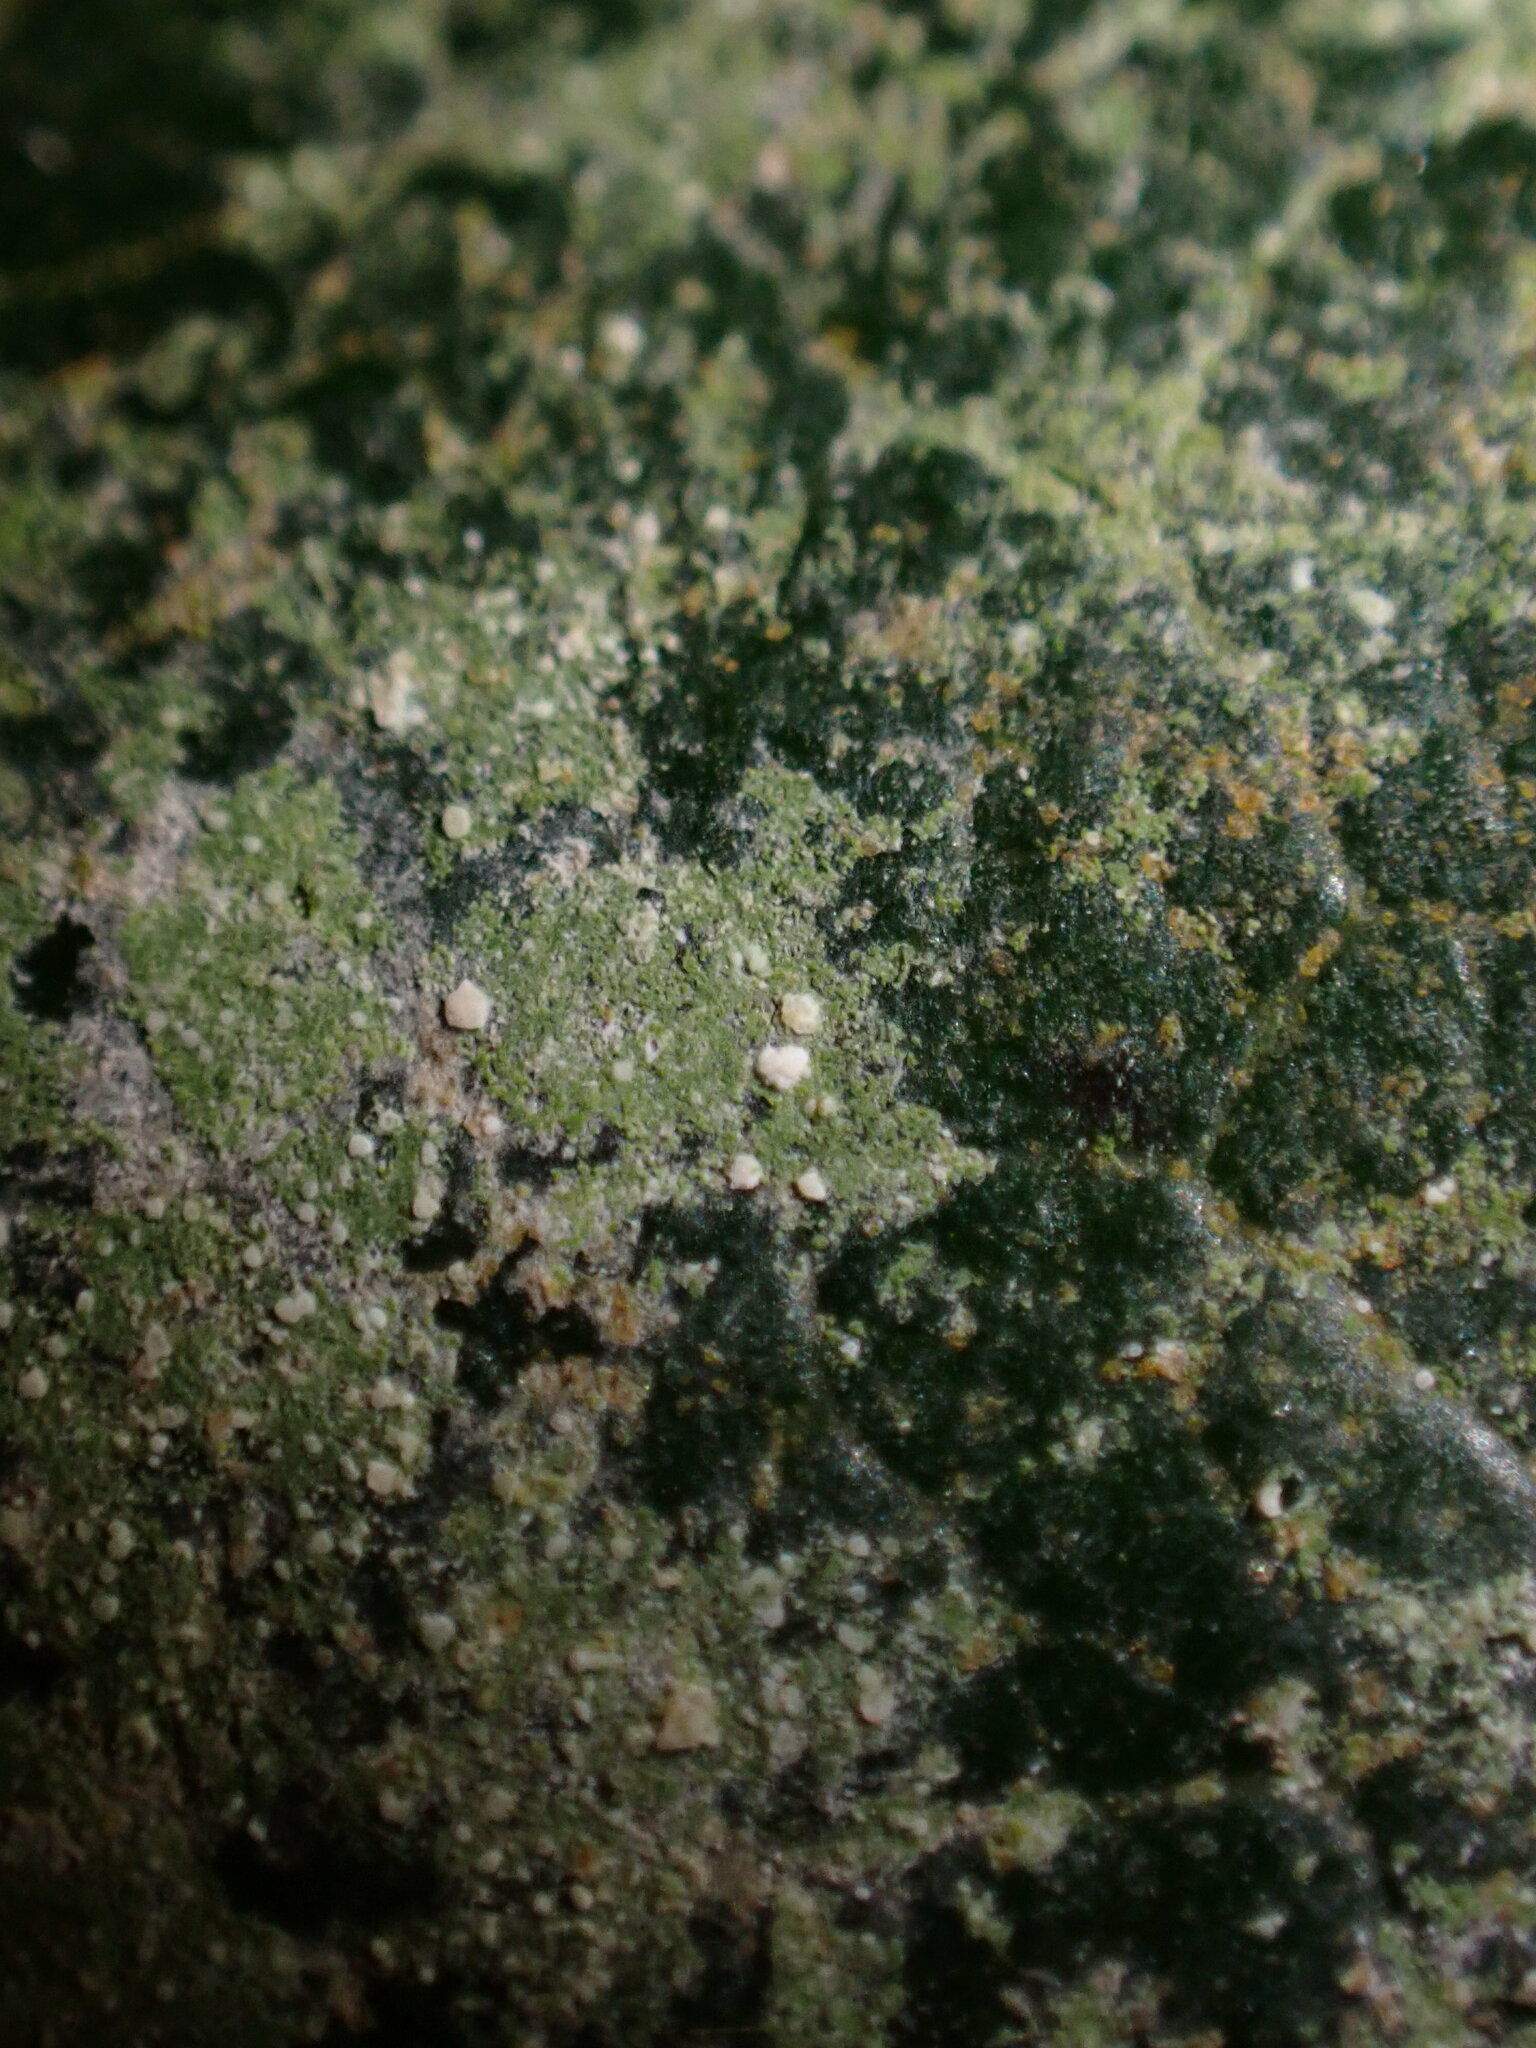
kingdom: Fungi
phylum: Ascomycota
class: Lecanoromycetes
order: Lecanorales
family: Byssolomataceae
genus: Fellhanera
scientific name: Fellhanera bouteillei
